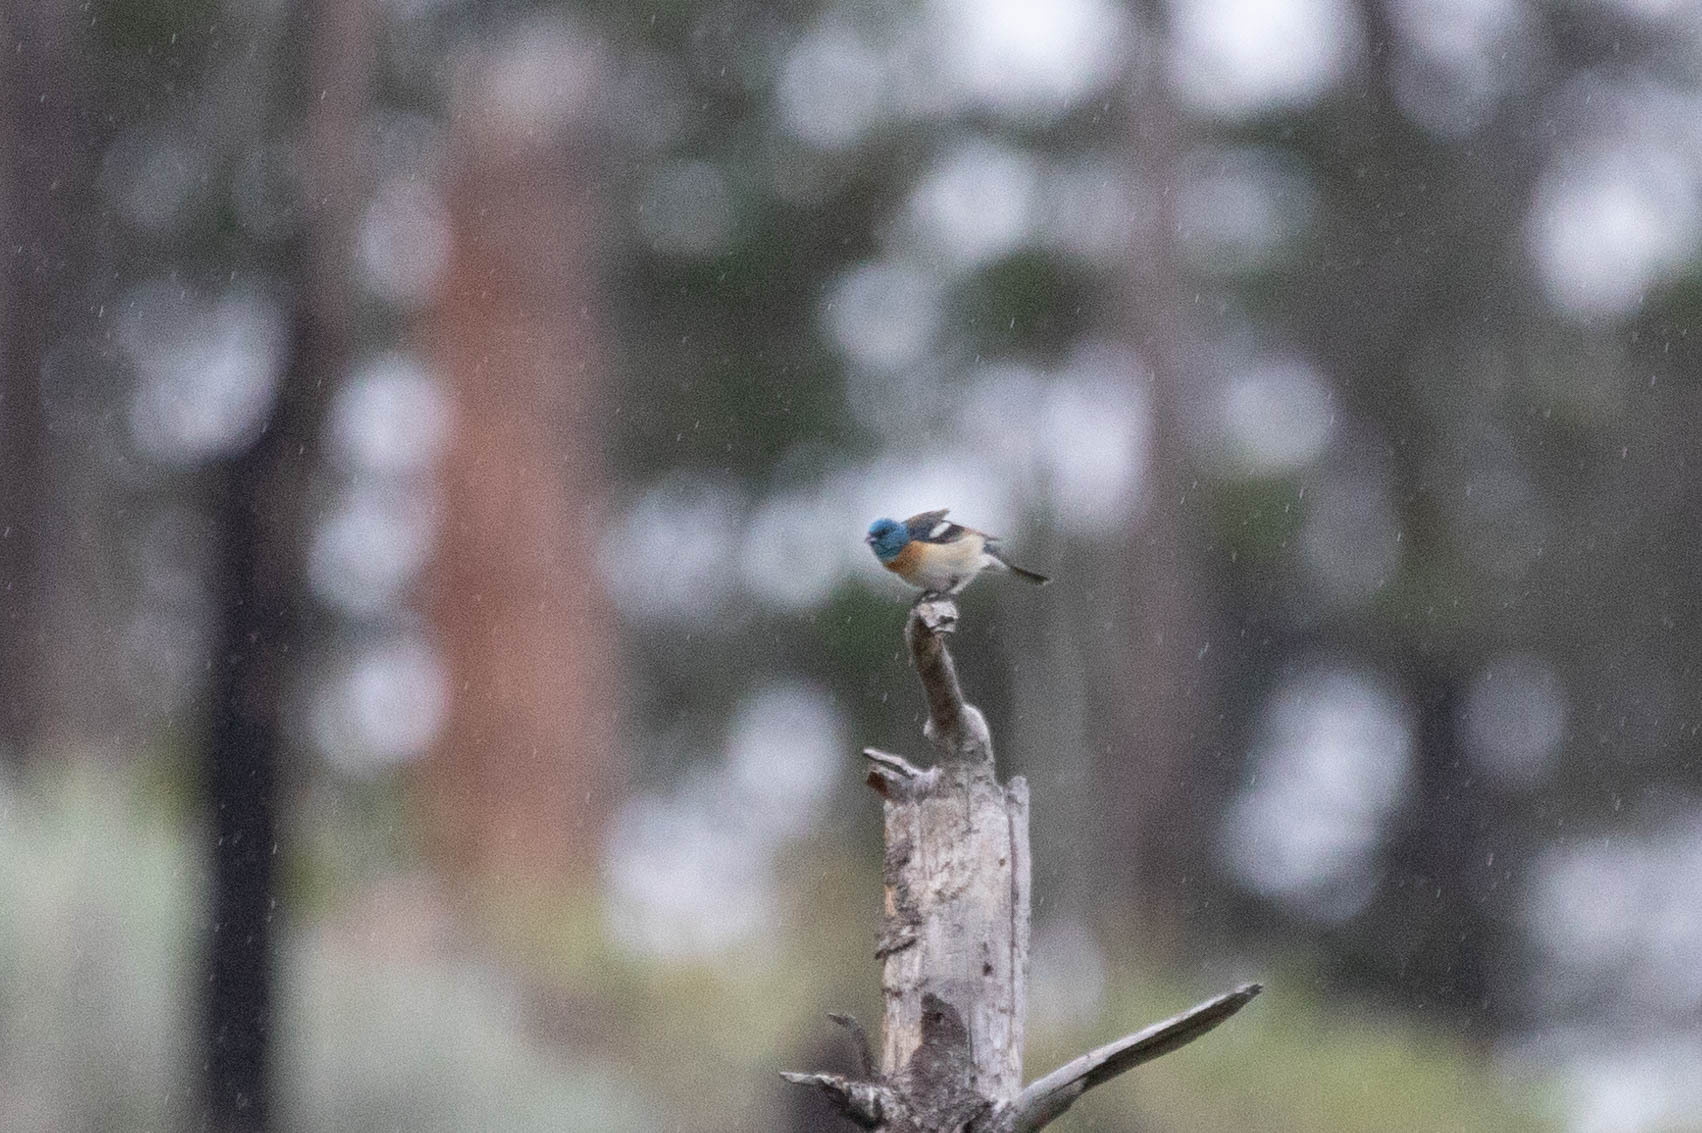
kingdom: Animalia
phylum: Chordata
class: Aves
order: Passeriformes
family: Cardinalidae
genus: Passerina
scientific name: Passerina amoena
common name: Lazuli bunting
